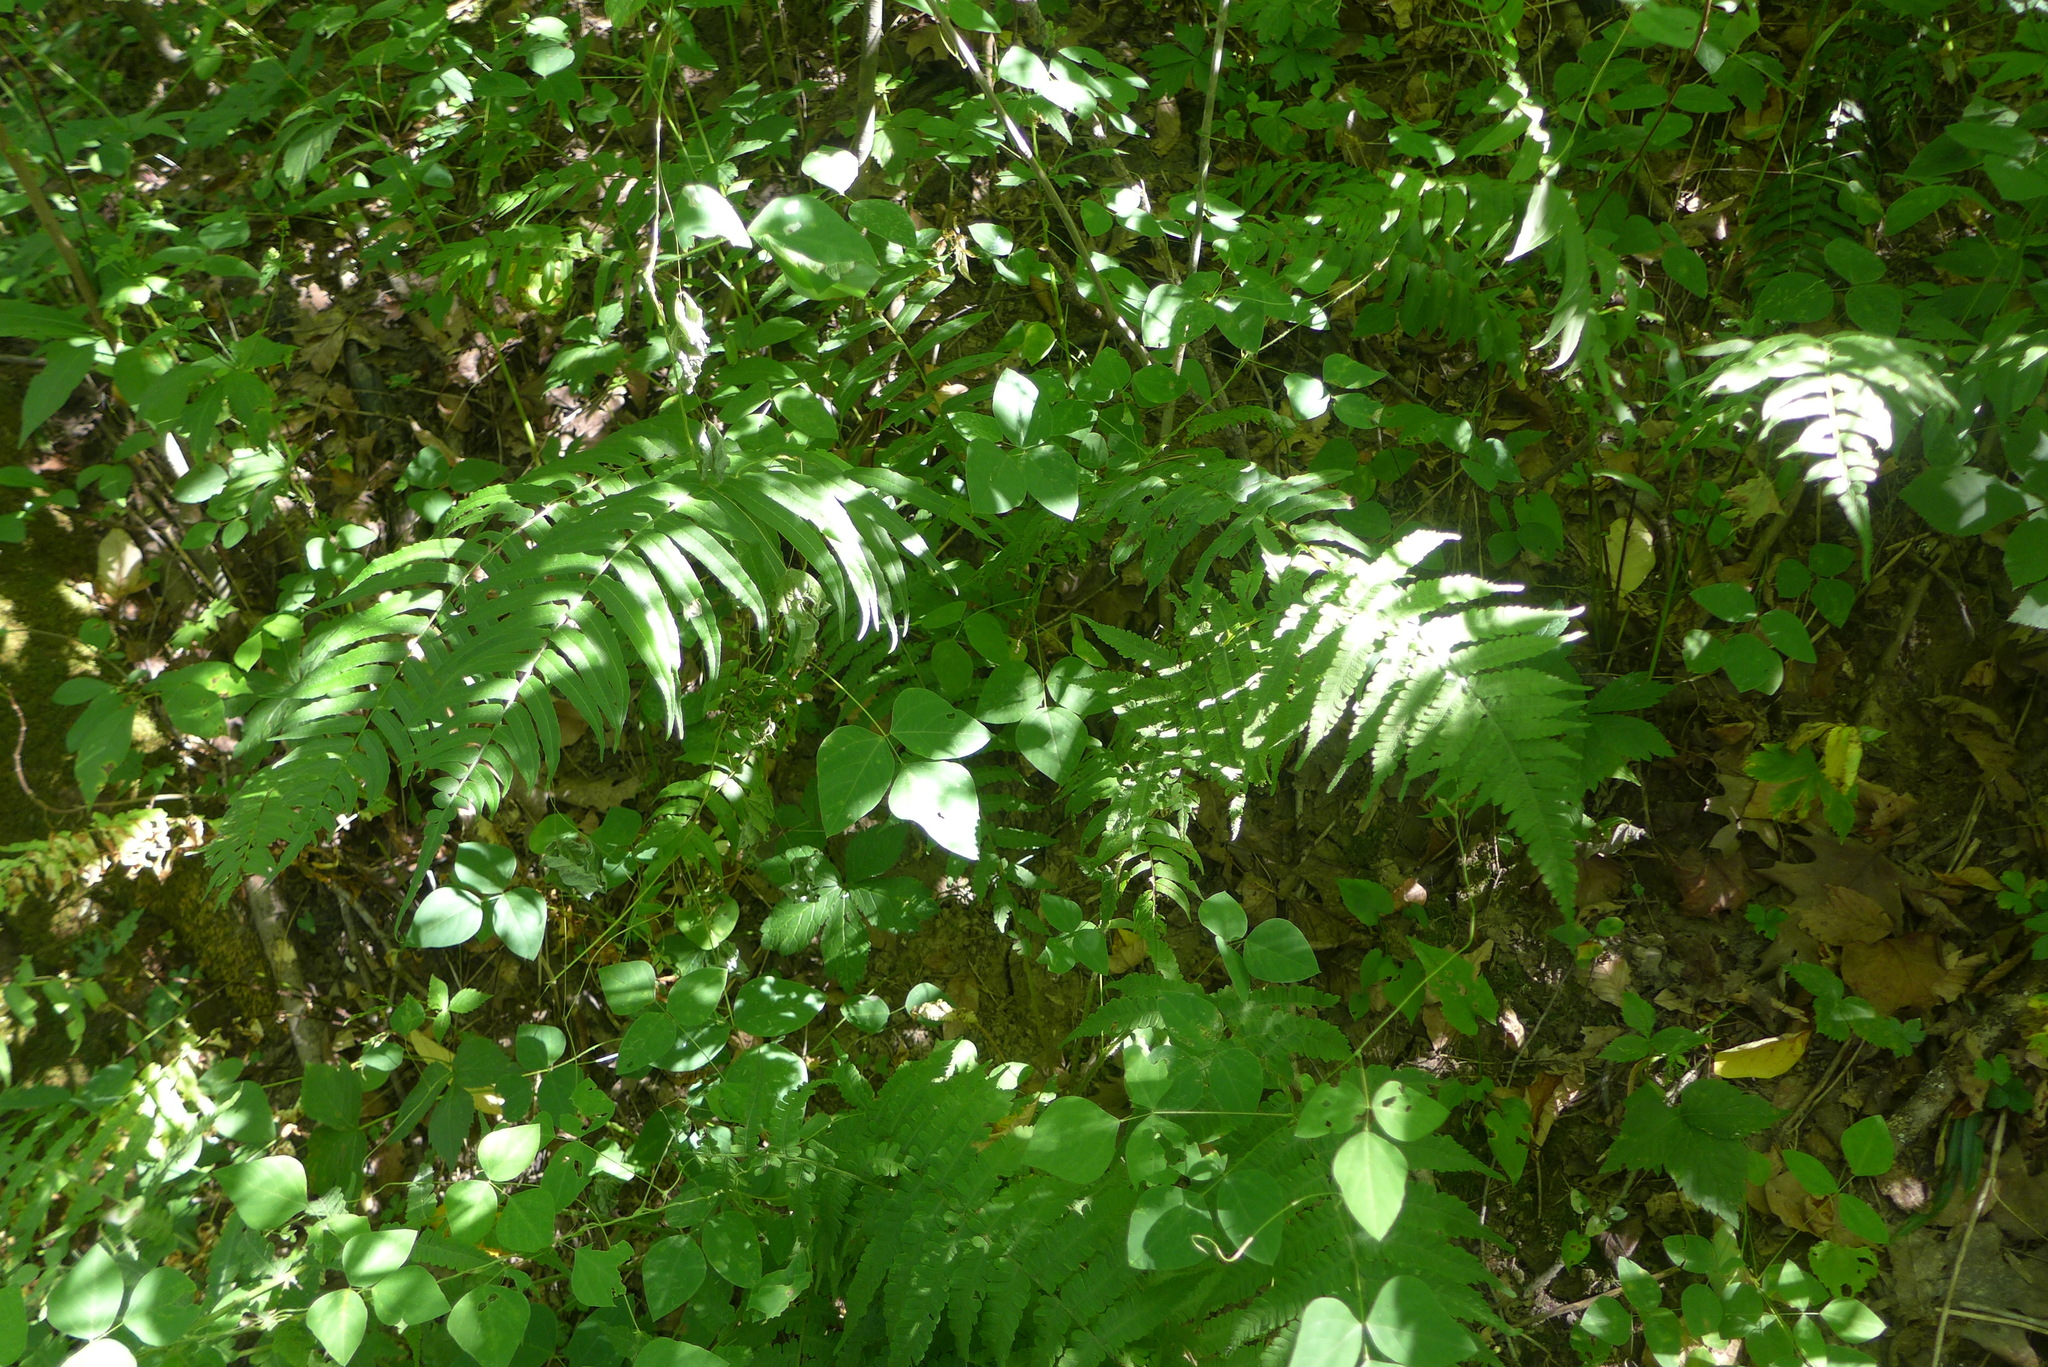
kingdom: Plantae
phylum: Tracheophyta
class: Polypodiopsida
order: Polypodiales
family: Diplaziopsidaceae
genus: Homalosorus
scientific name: Homalosorus pycnocarpos
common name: Glade fern
